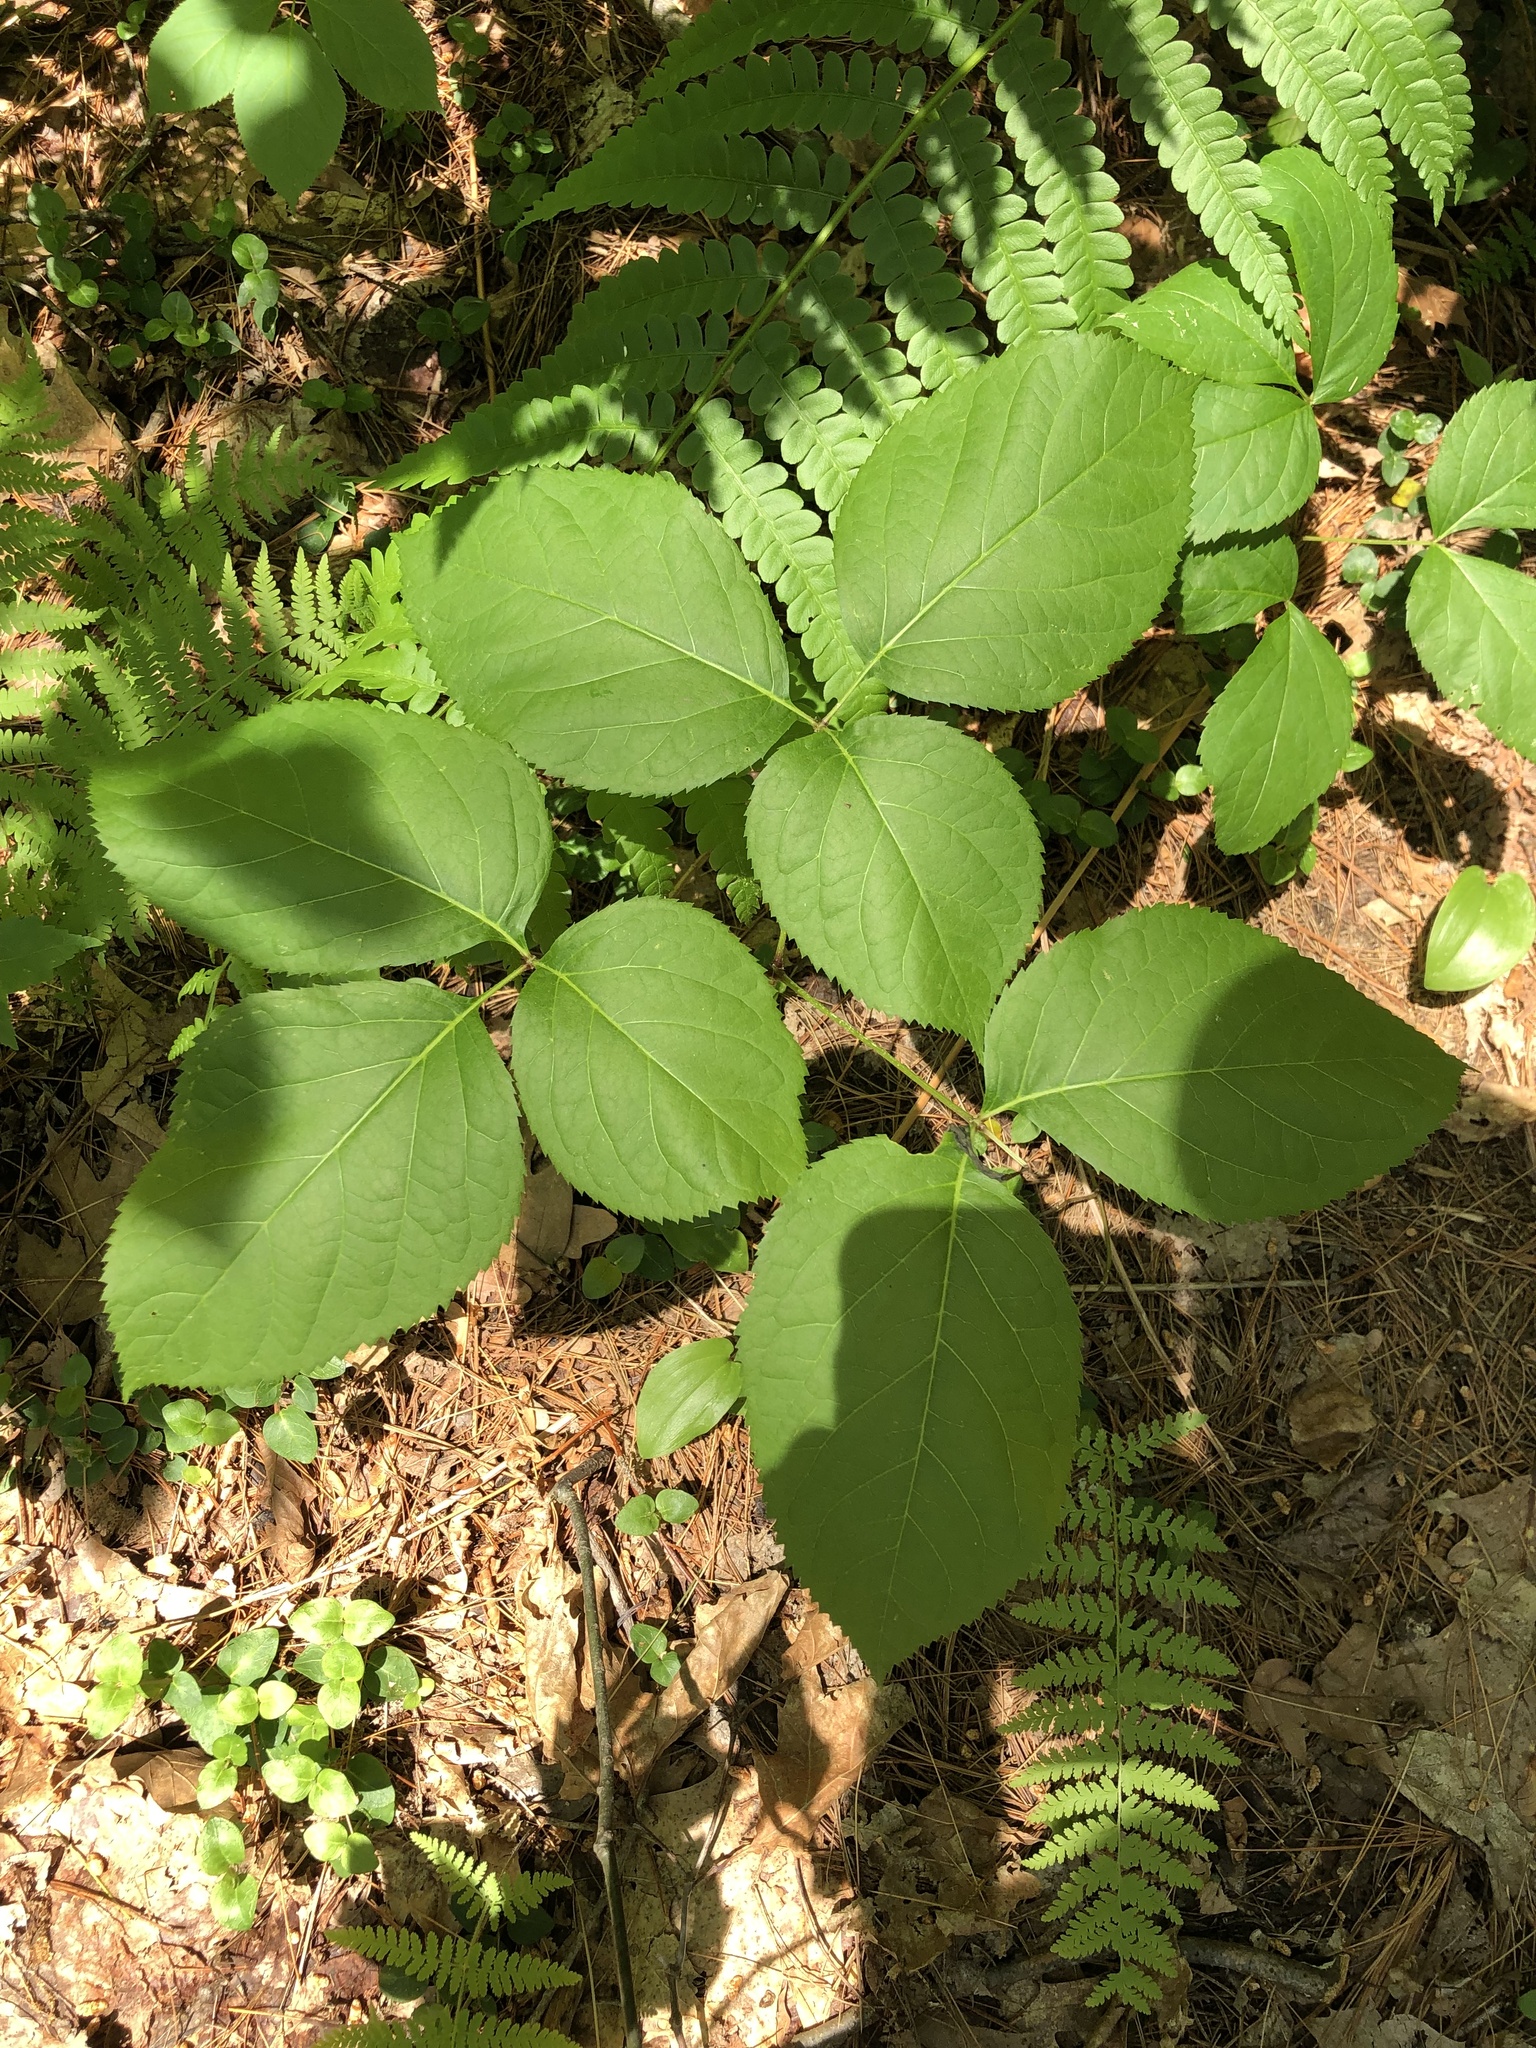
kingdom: Plantae
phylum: Tracheophyta
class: Magnoliopsida
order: Apiales
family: Araliaceae
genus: Aralia
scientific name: Aralia nudicaulis
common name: Wild sarsaparilla
